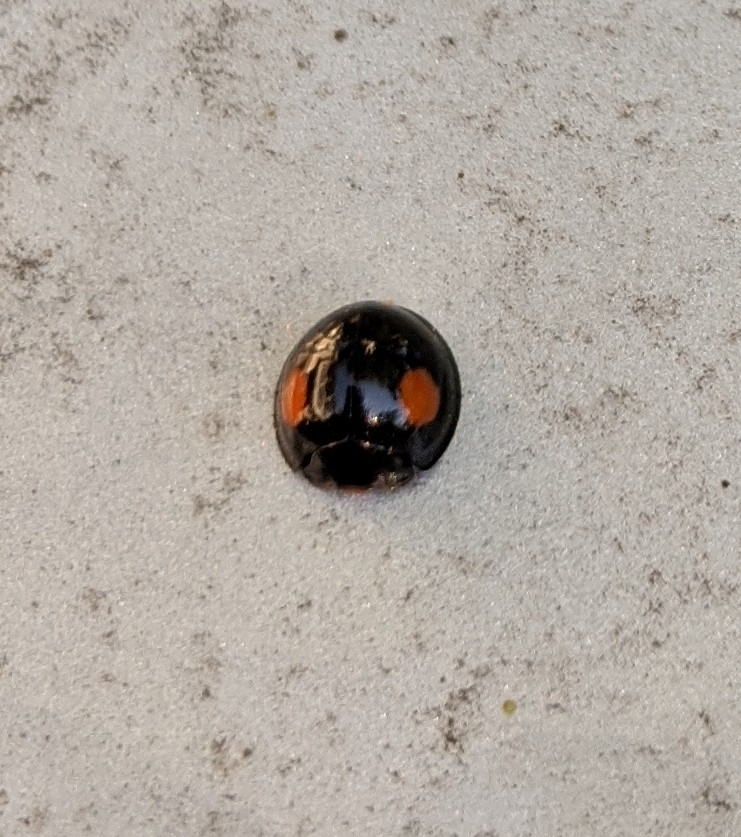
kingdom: Animalia
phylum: Arthropoda
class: Insecta
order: Coleoptera
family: Coccinellidae
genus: Axion
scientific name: Axion plagiatum
